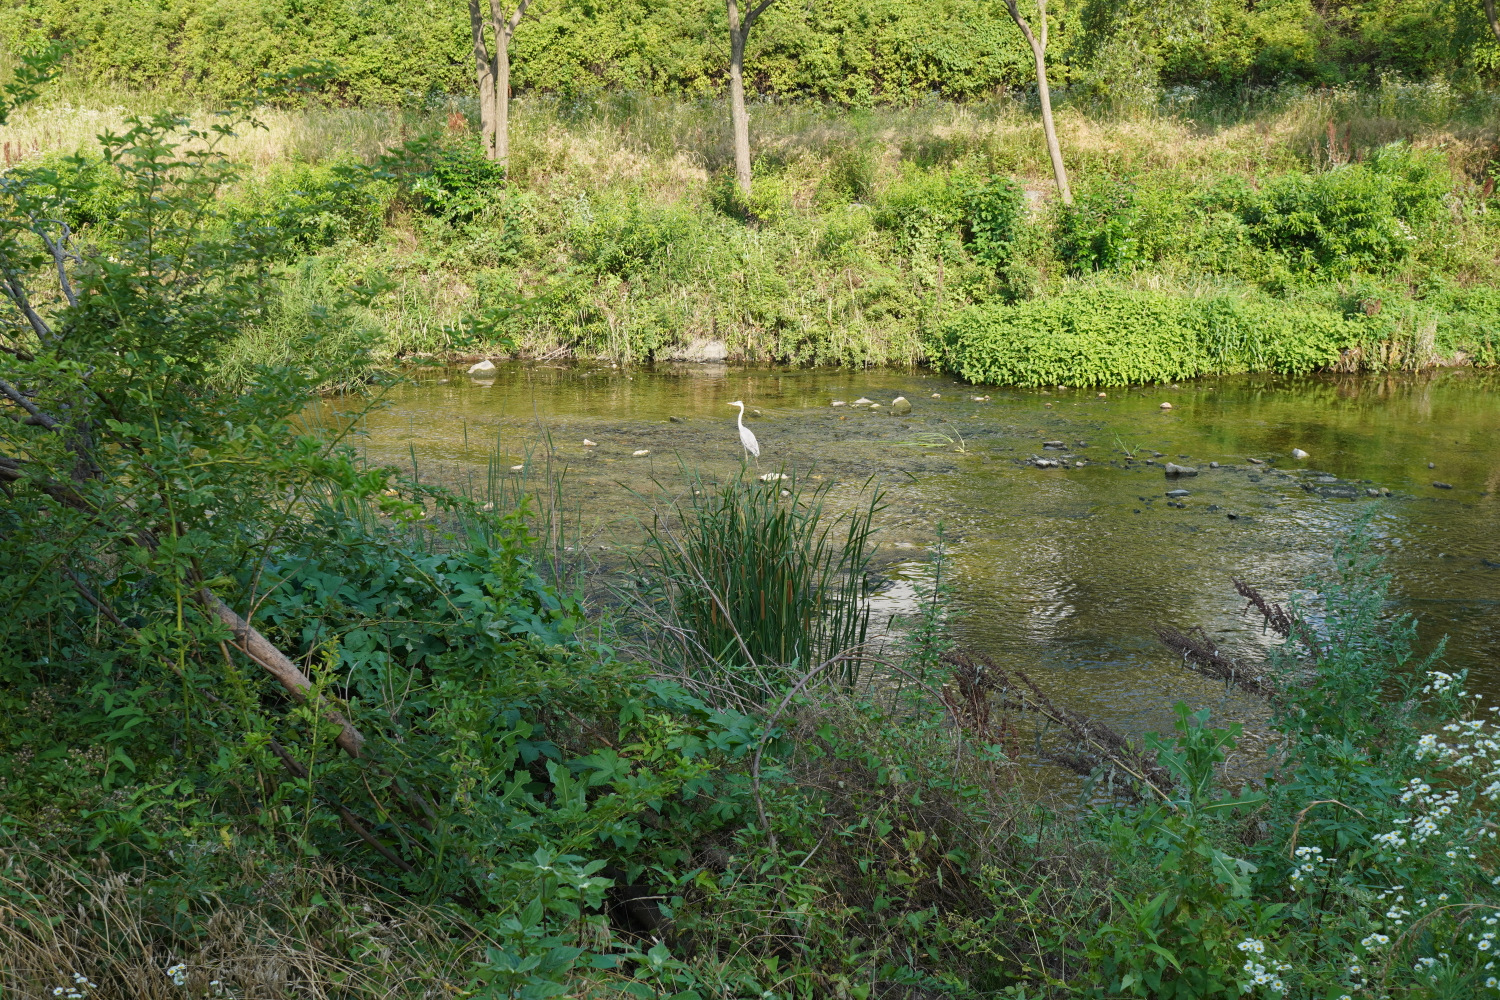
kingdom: Animalia
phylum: Chordata
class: Aves
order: Pelecaniformes
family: Ardeidae
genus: Ardea
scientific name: Ardea alba
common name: Great egret
